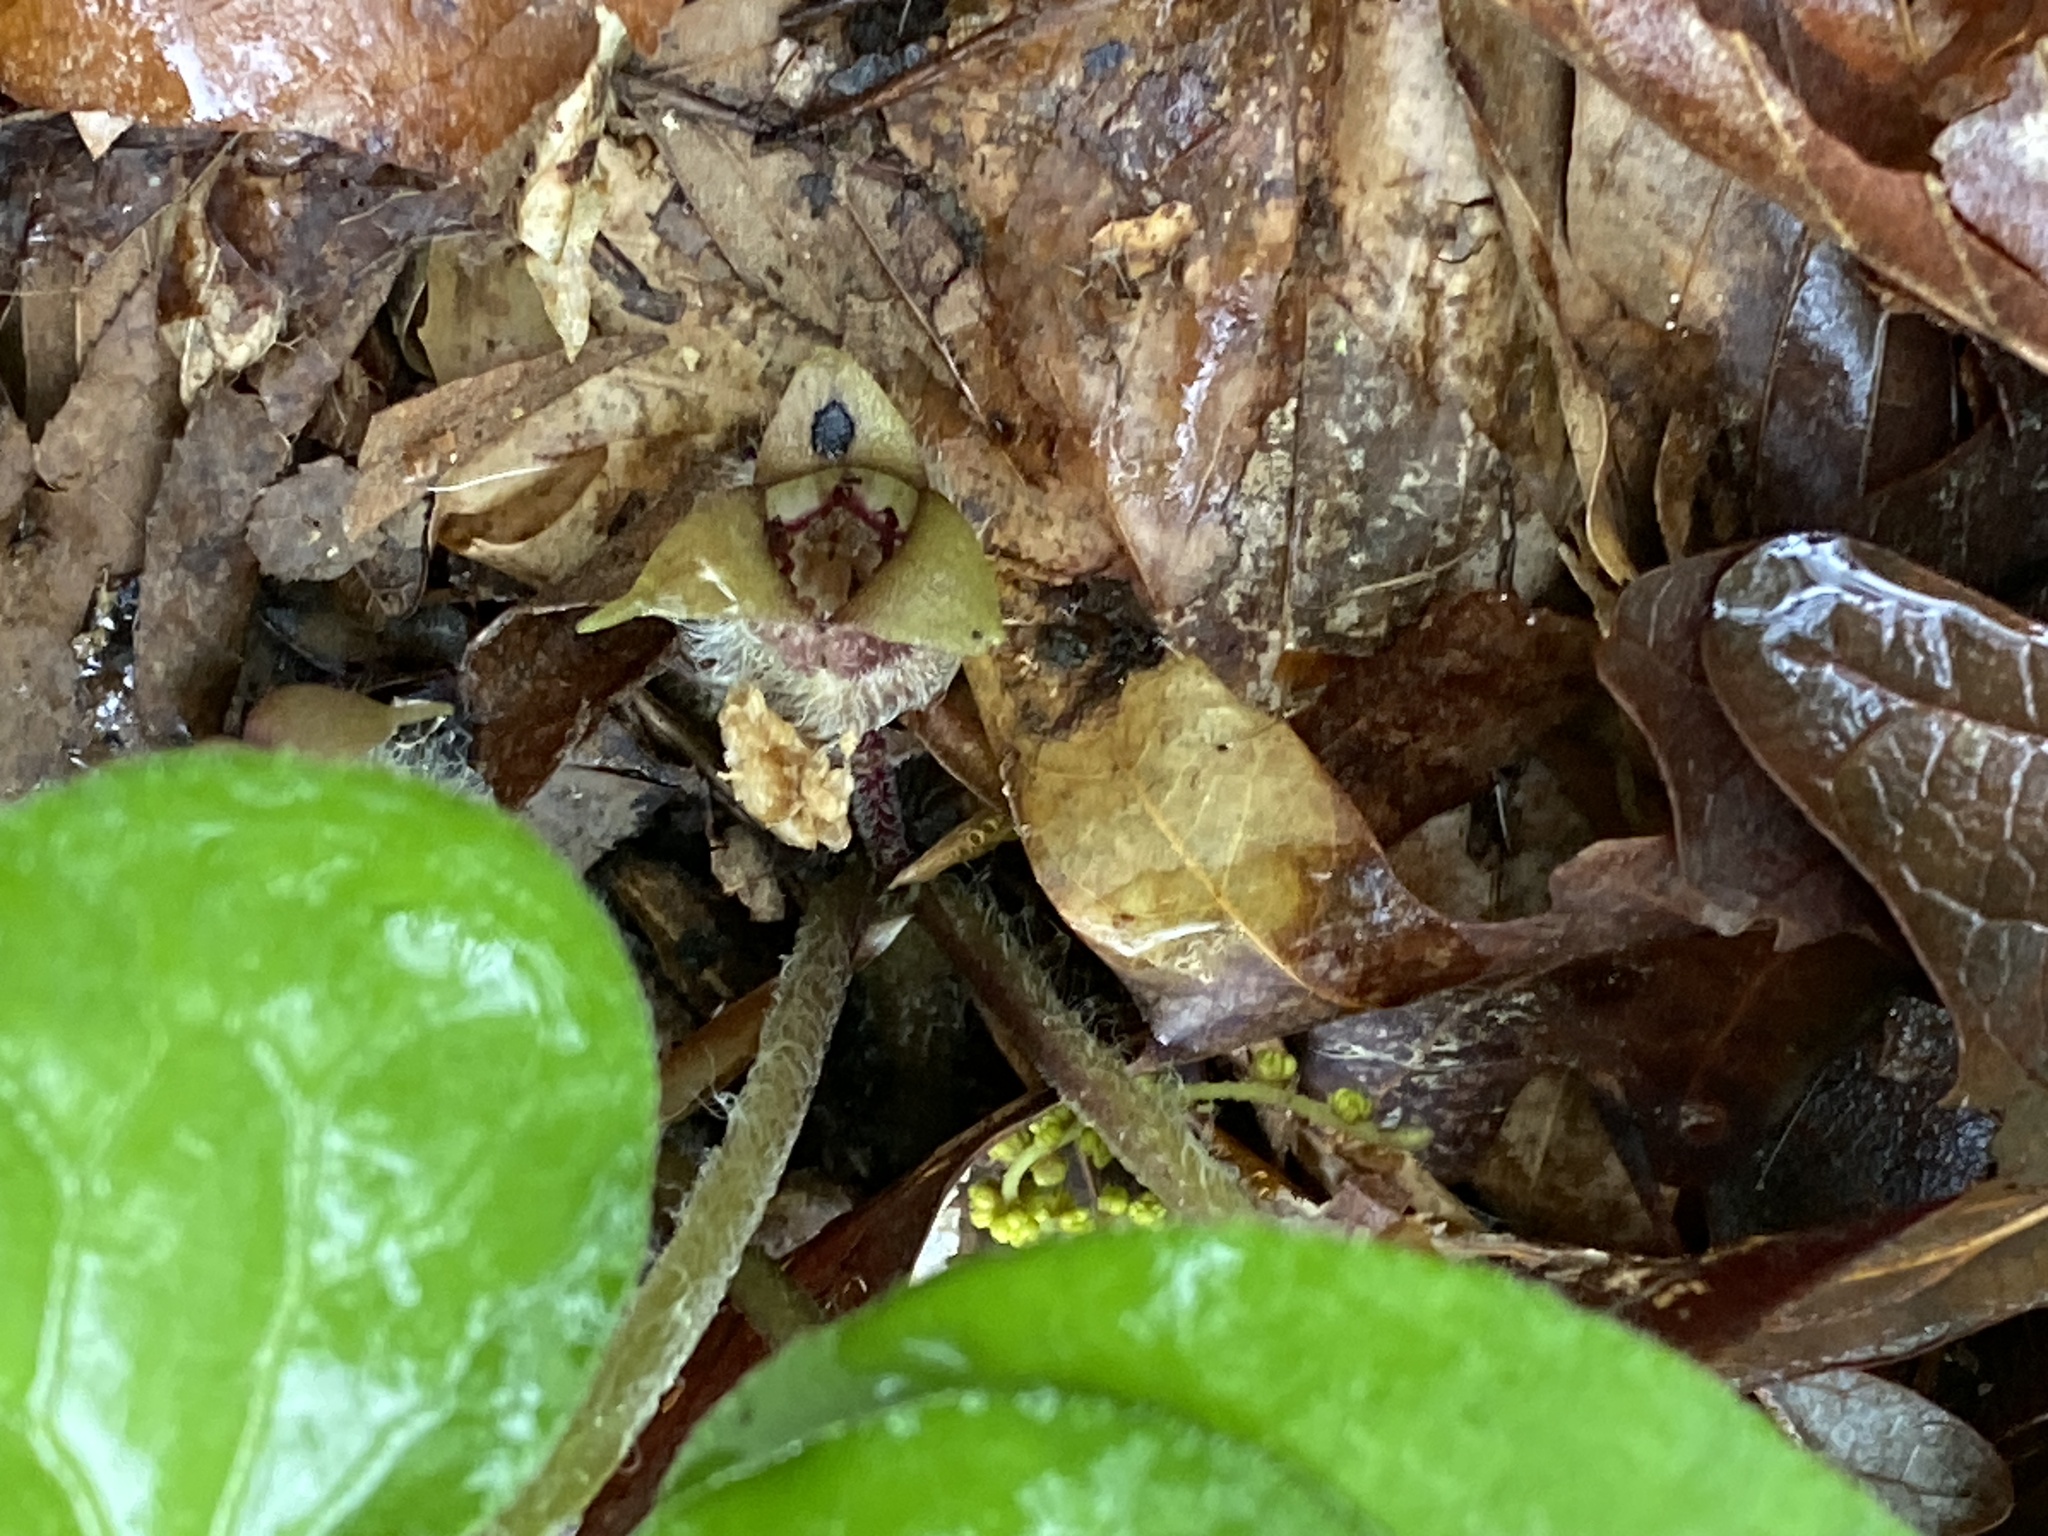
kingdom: Plantae
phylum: Tracheophyta
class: Magnoliopsida
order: Piperales
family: Aristolochiaceae
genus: Asarum
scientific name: Asarum canadense
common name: Wild ginger
